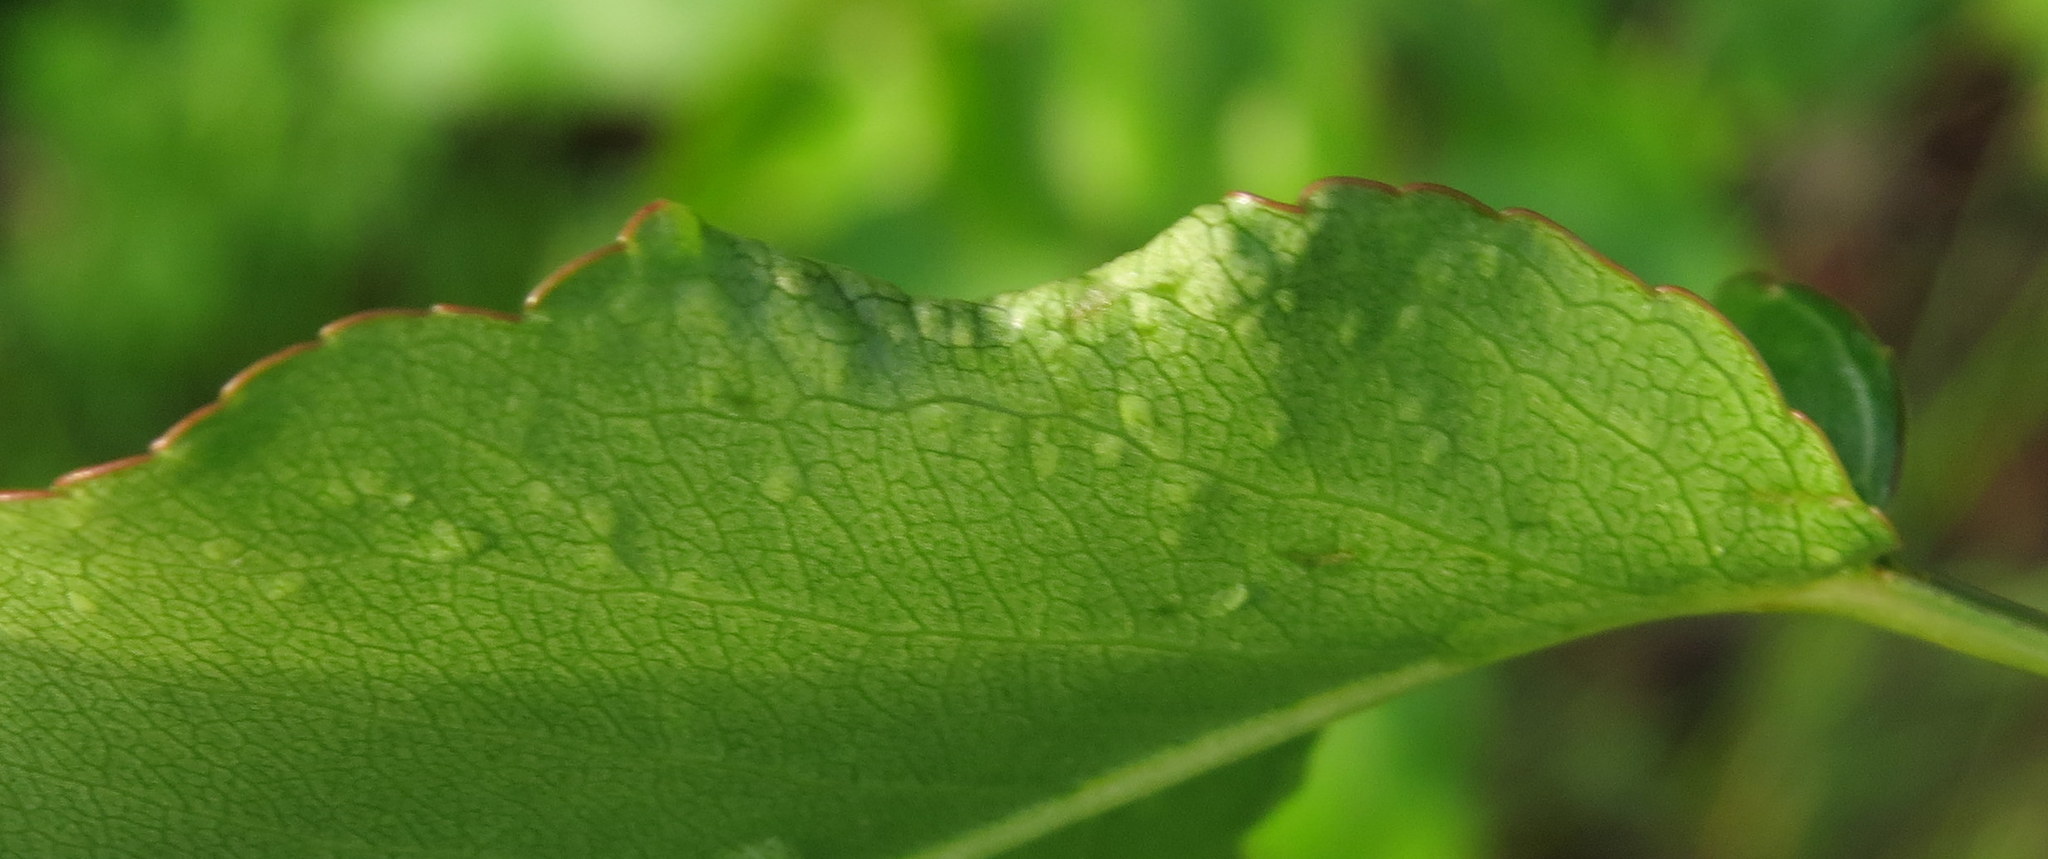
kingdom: Animalia
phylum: Arthropoda
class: Arachnida
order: Trombidiformes
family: Eriophyidae
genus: Eriophyes
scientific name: Eriophyes marginemtorquens
